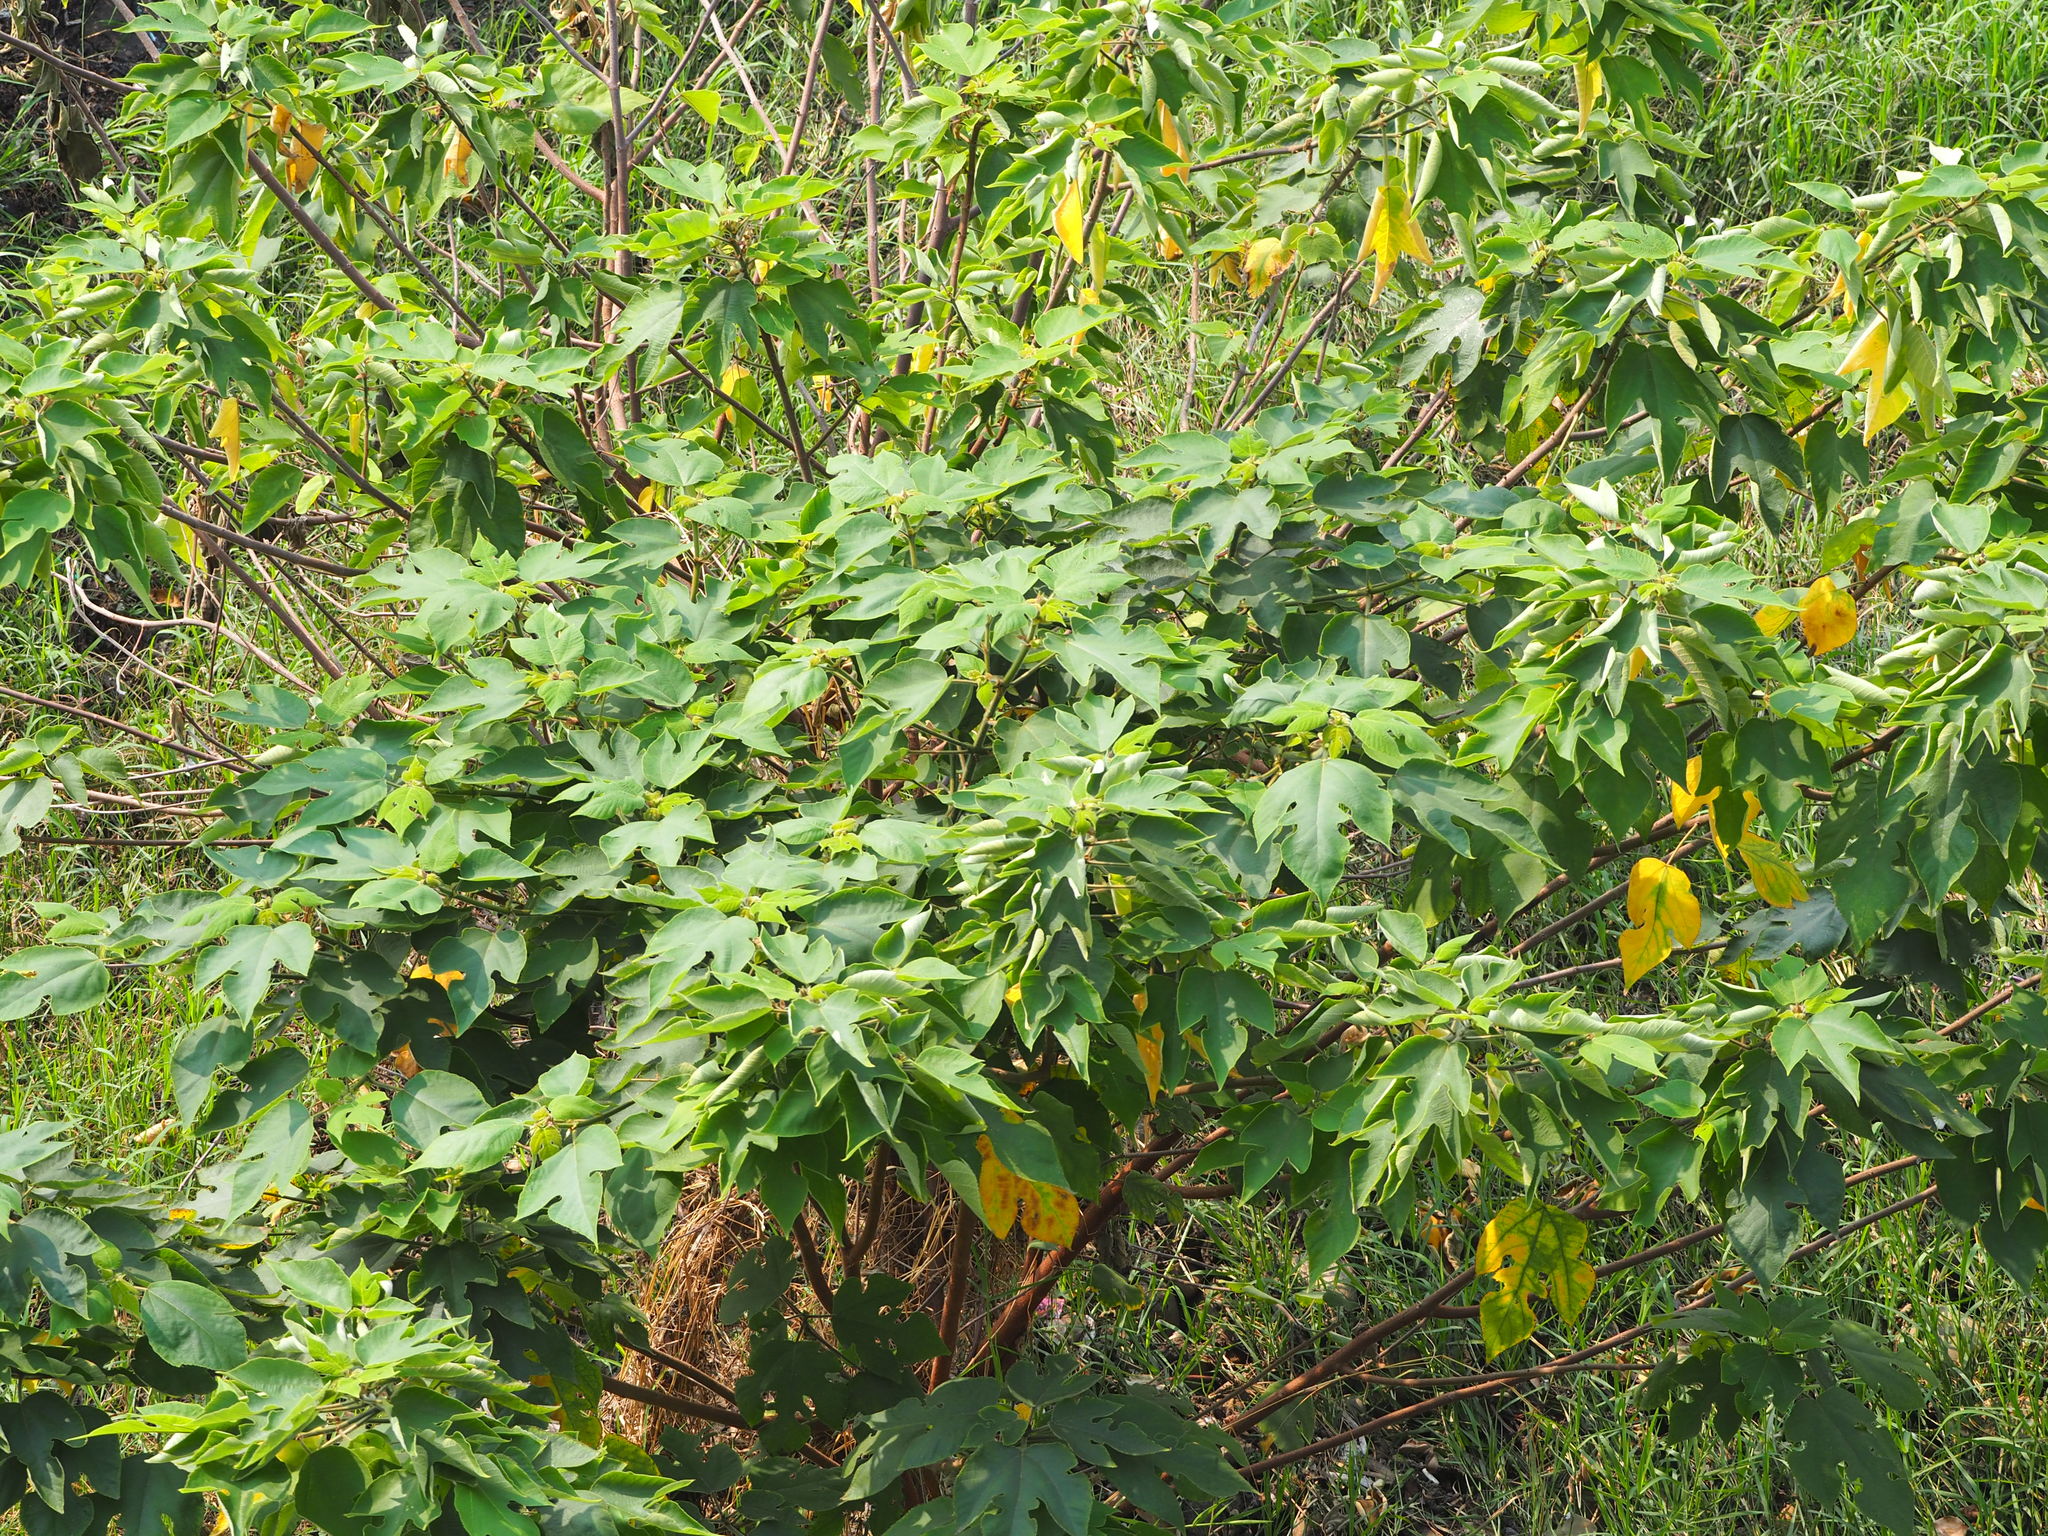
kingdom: Plantae
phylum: Tracheophyta
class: Magnoliopsida
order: Rosales
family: Moraceae
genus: Broussonetia
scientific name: Broussonetia papyrifera
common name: Paper mulberry
